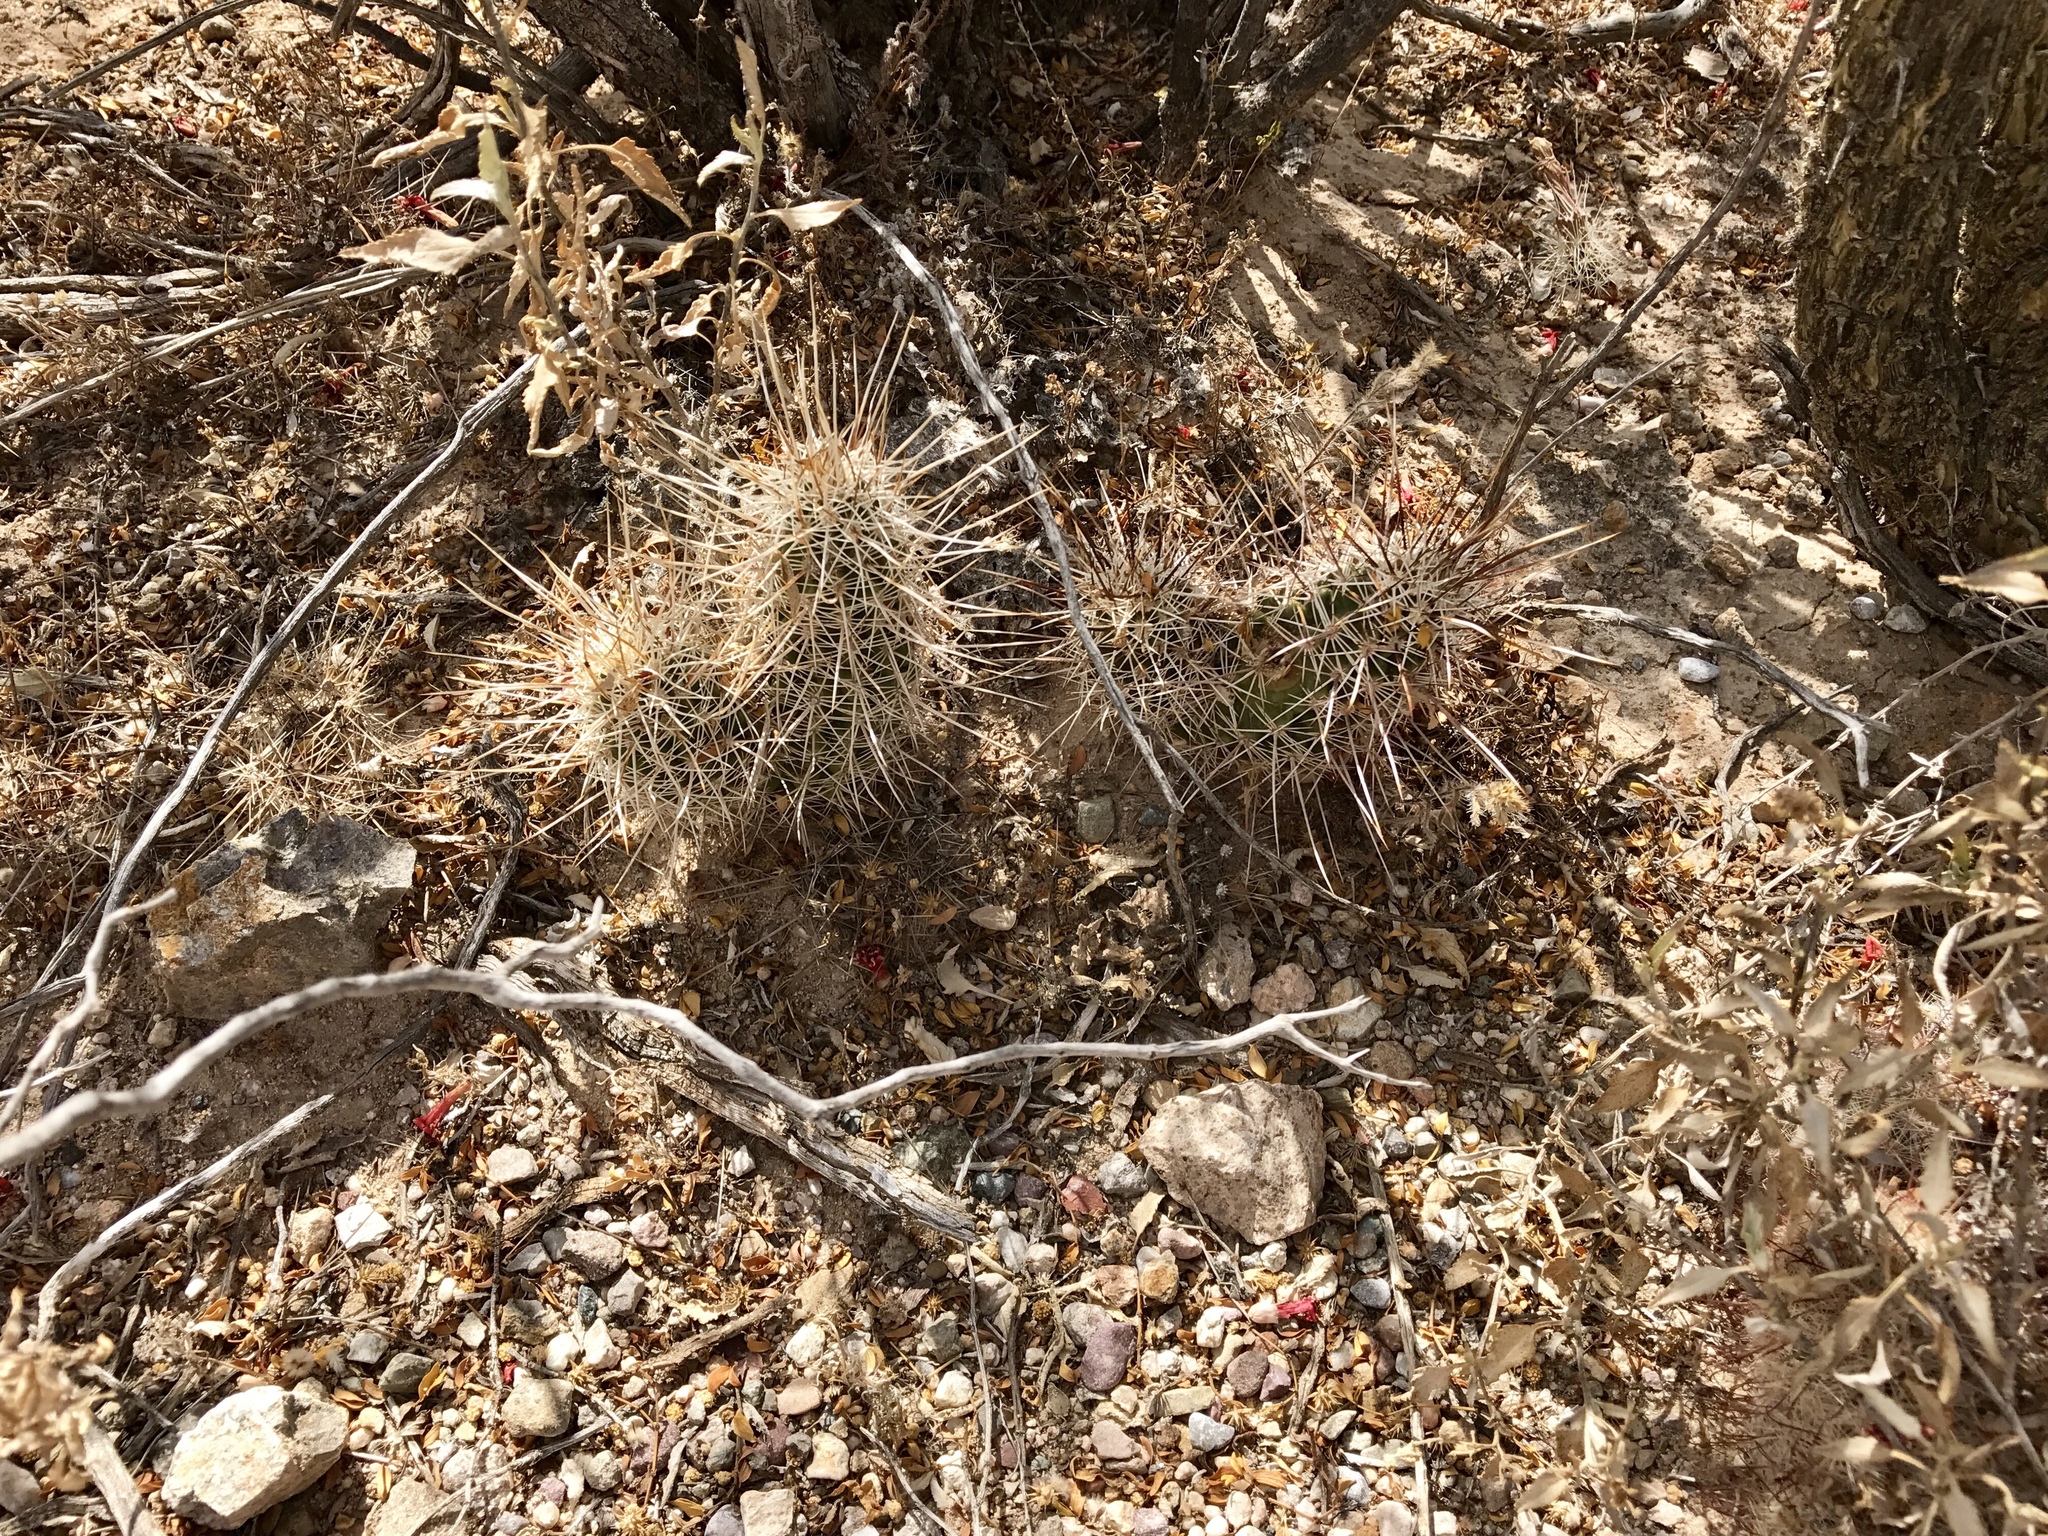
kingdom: Plantae
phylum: Tracheophyta
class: Magnoliopsida
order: Caryophyllales
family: Cactaceae
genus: Echinocereus
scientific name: Echinocereus fasciculatus
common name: Bundle hedgehog
